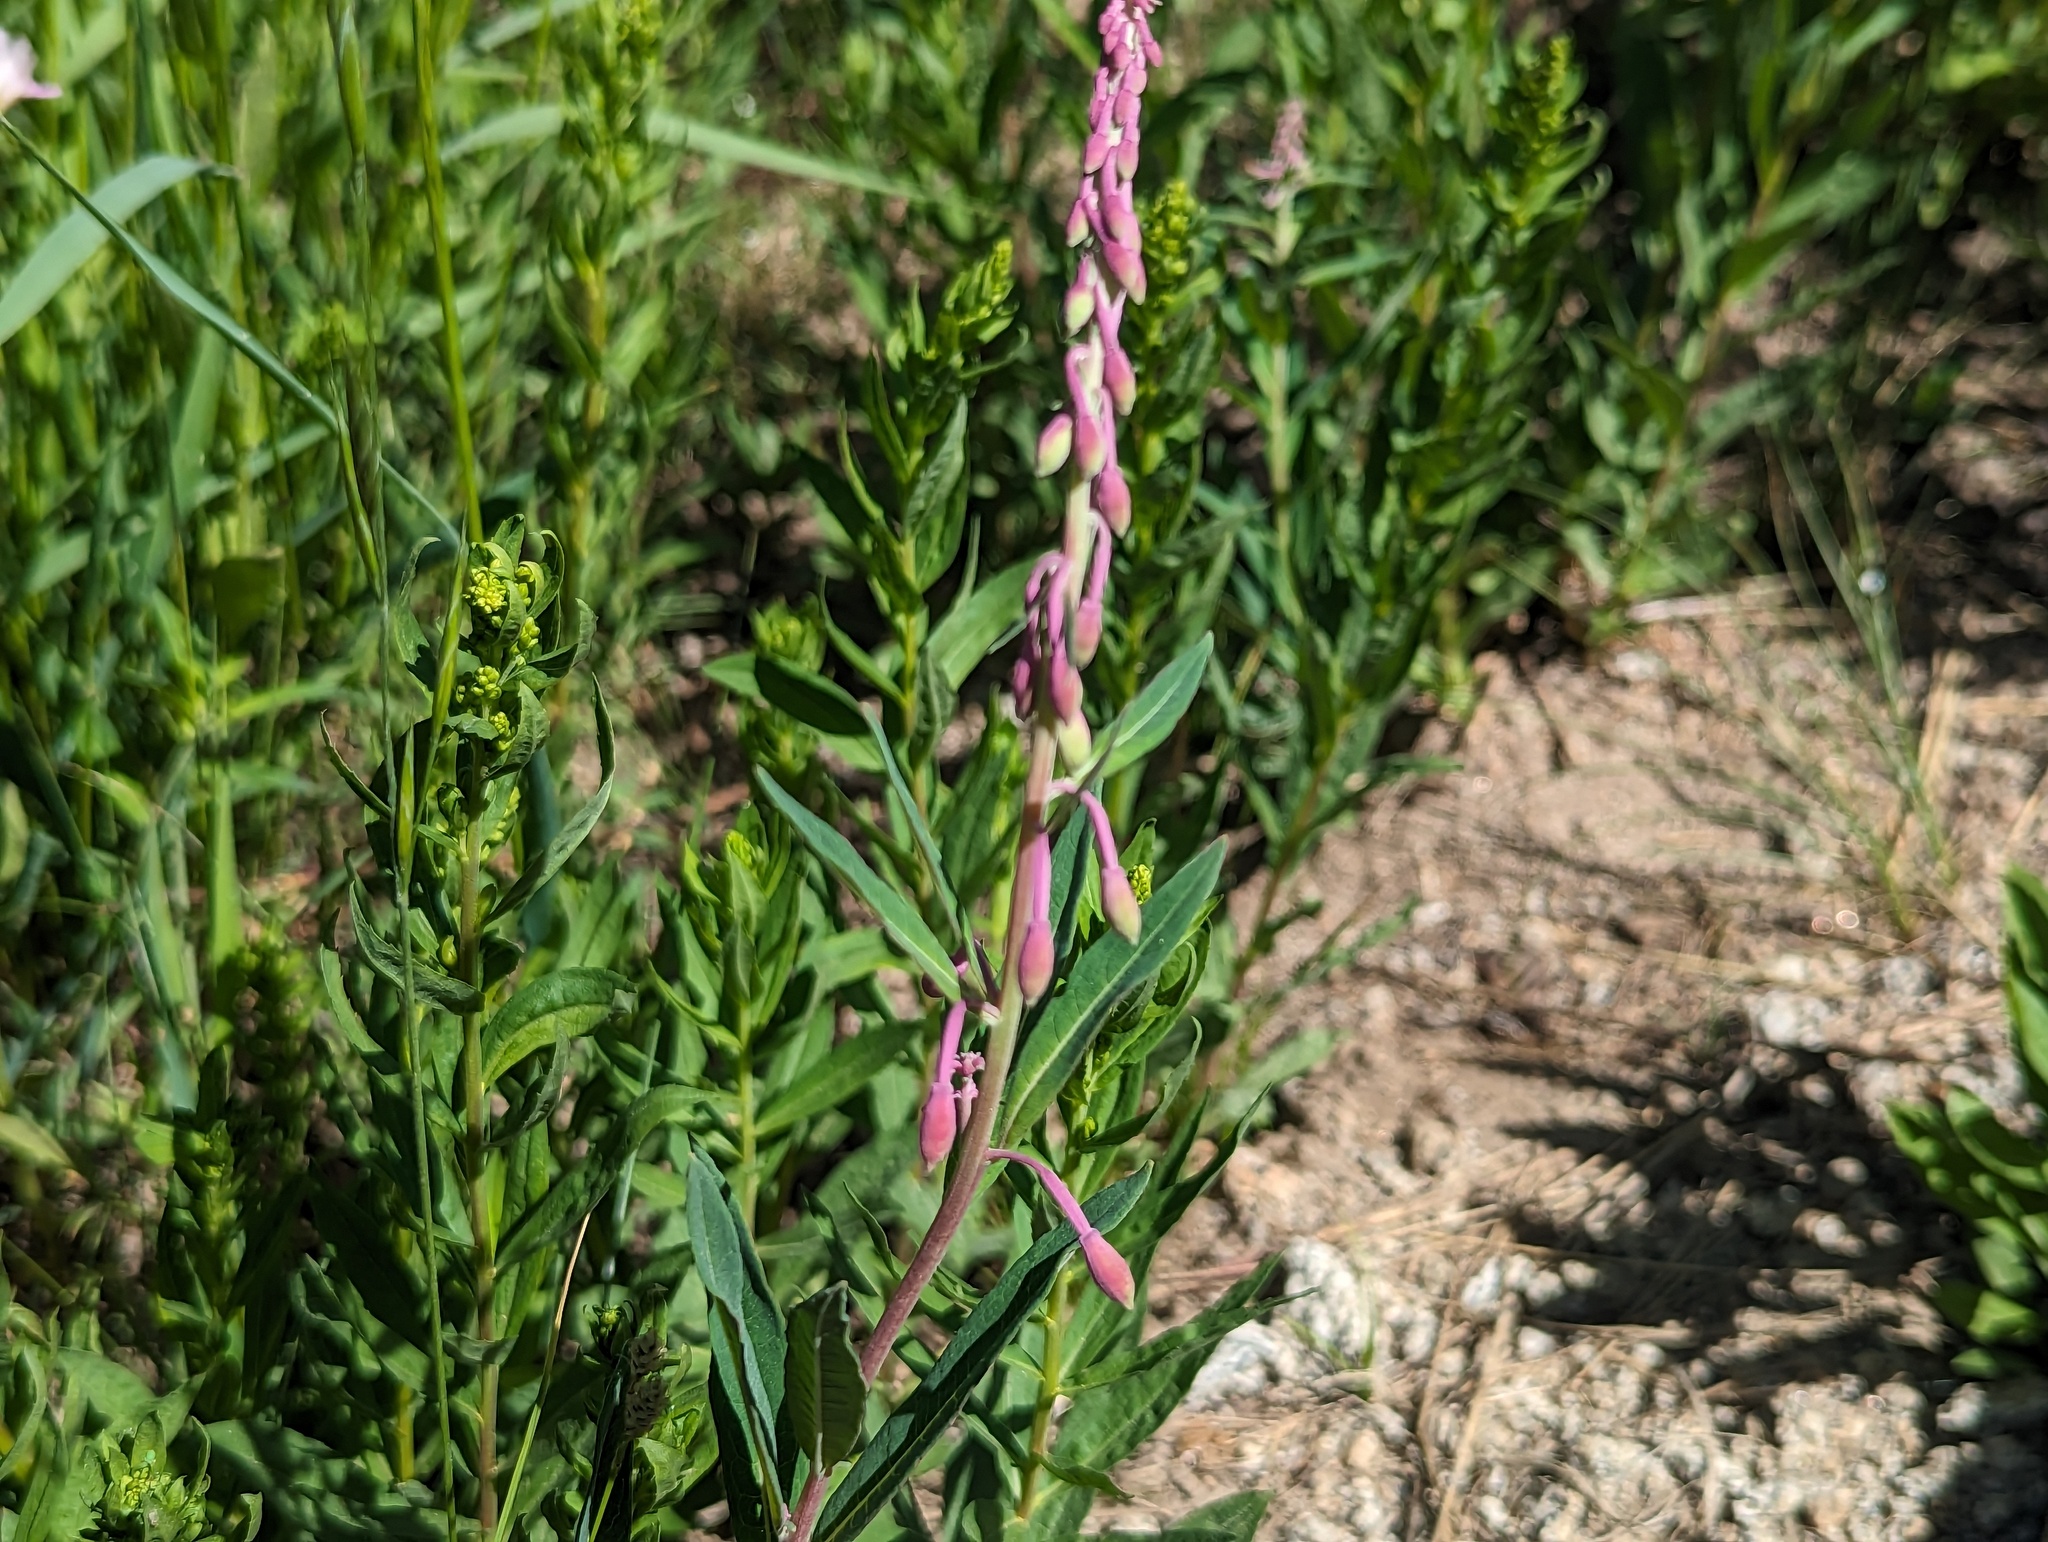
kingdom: Plantae
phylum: Tracheophyta
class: Magnoliopsida
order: Myrtales
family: Onagraceae
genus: Chamaenerion
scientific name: Chamaenerion angustifolium
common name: Fireweed
